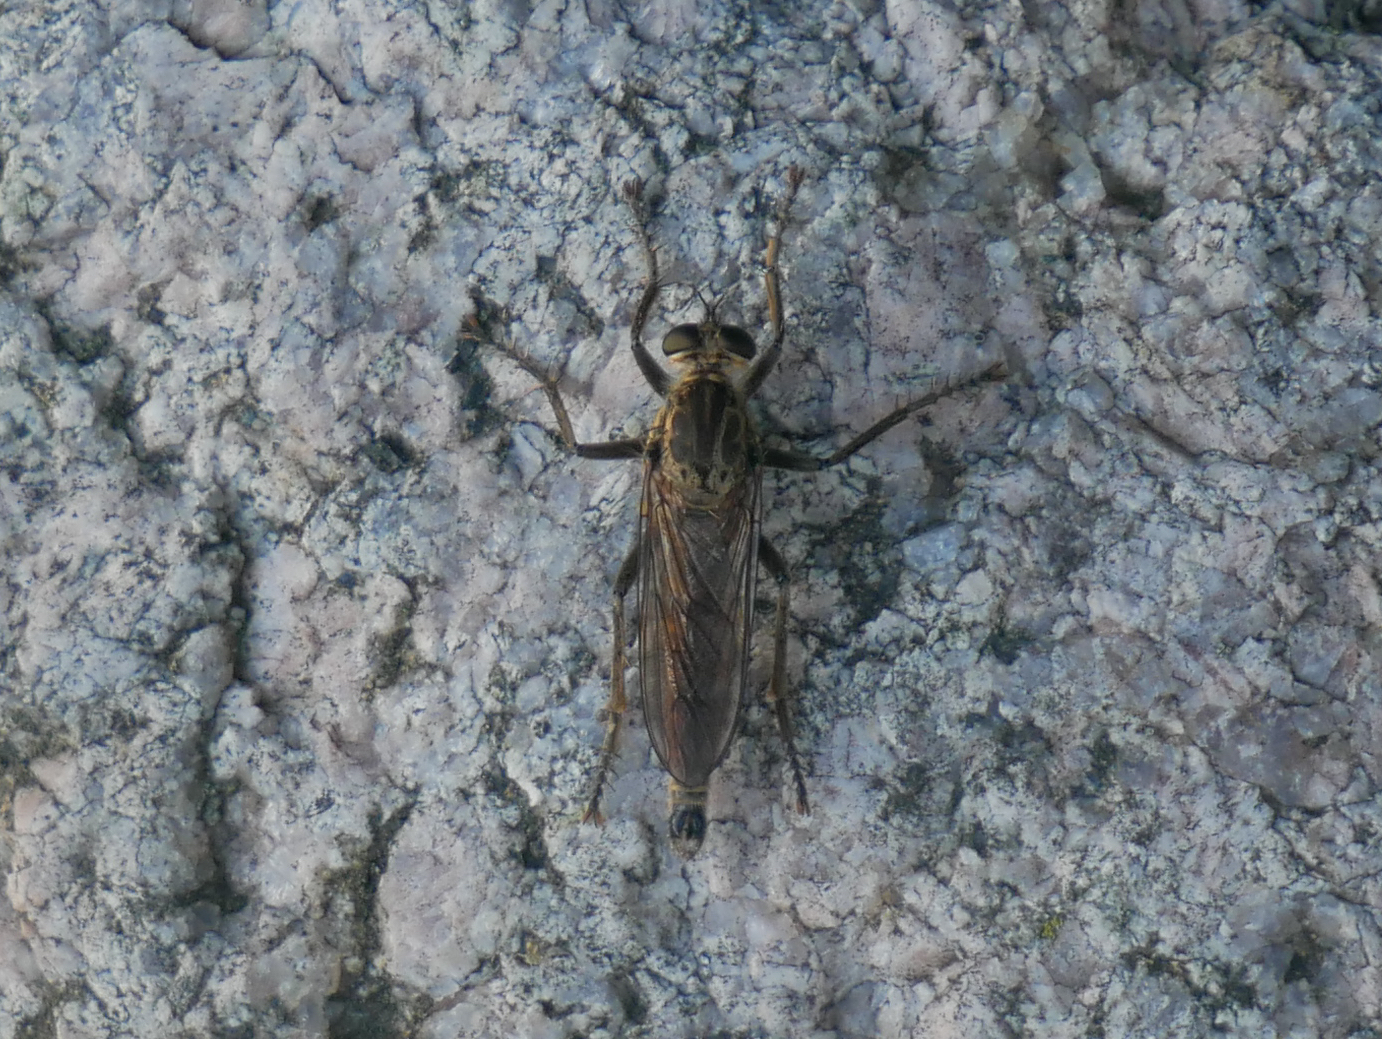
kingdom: Animalia
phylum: Arthropoda
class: Insecta
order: Diptera
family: Asilidae
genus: Philonicus
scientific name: Philonicus albiceps
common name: Dune robberfly
